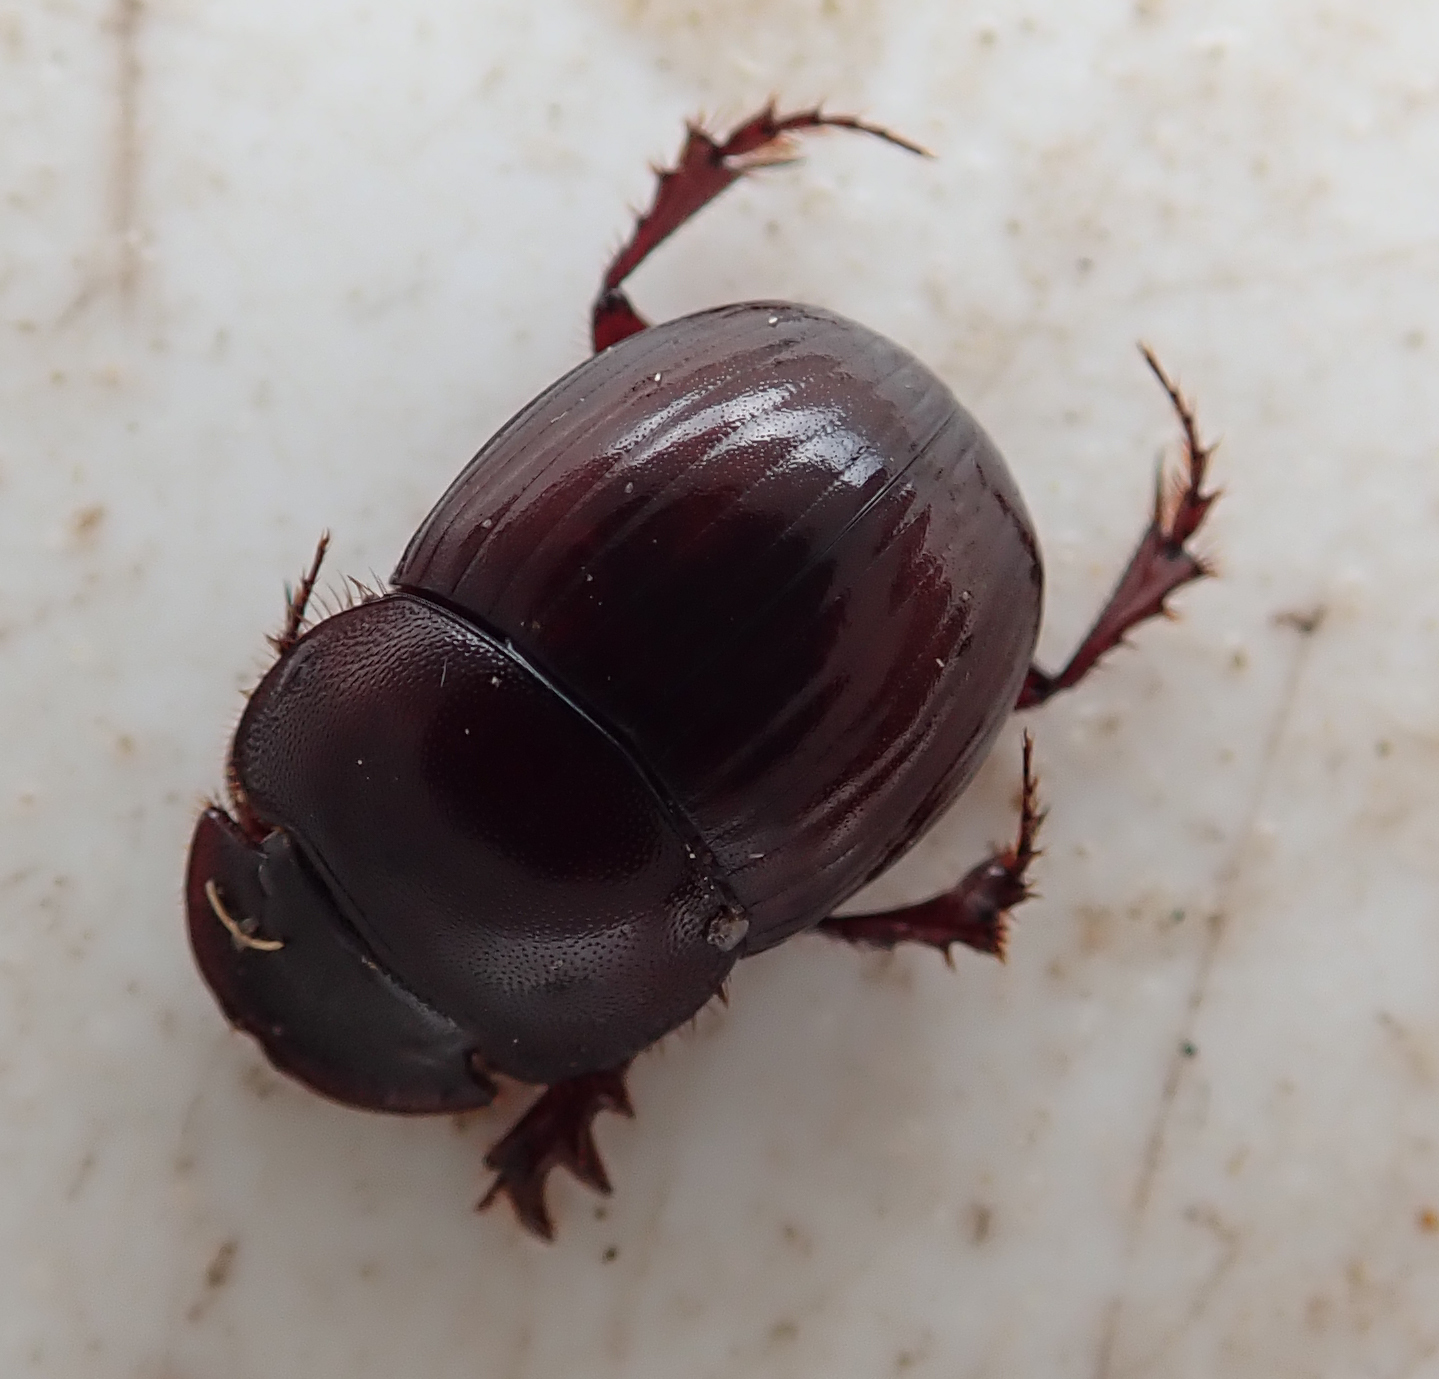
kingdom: Animalia
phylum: Arthropoda
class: Insecta
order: Coleoptera
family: Scarabaeidae
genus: Metacatharsius
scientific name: Metacatharsius marani
